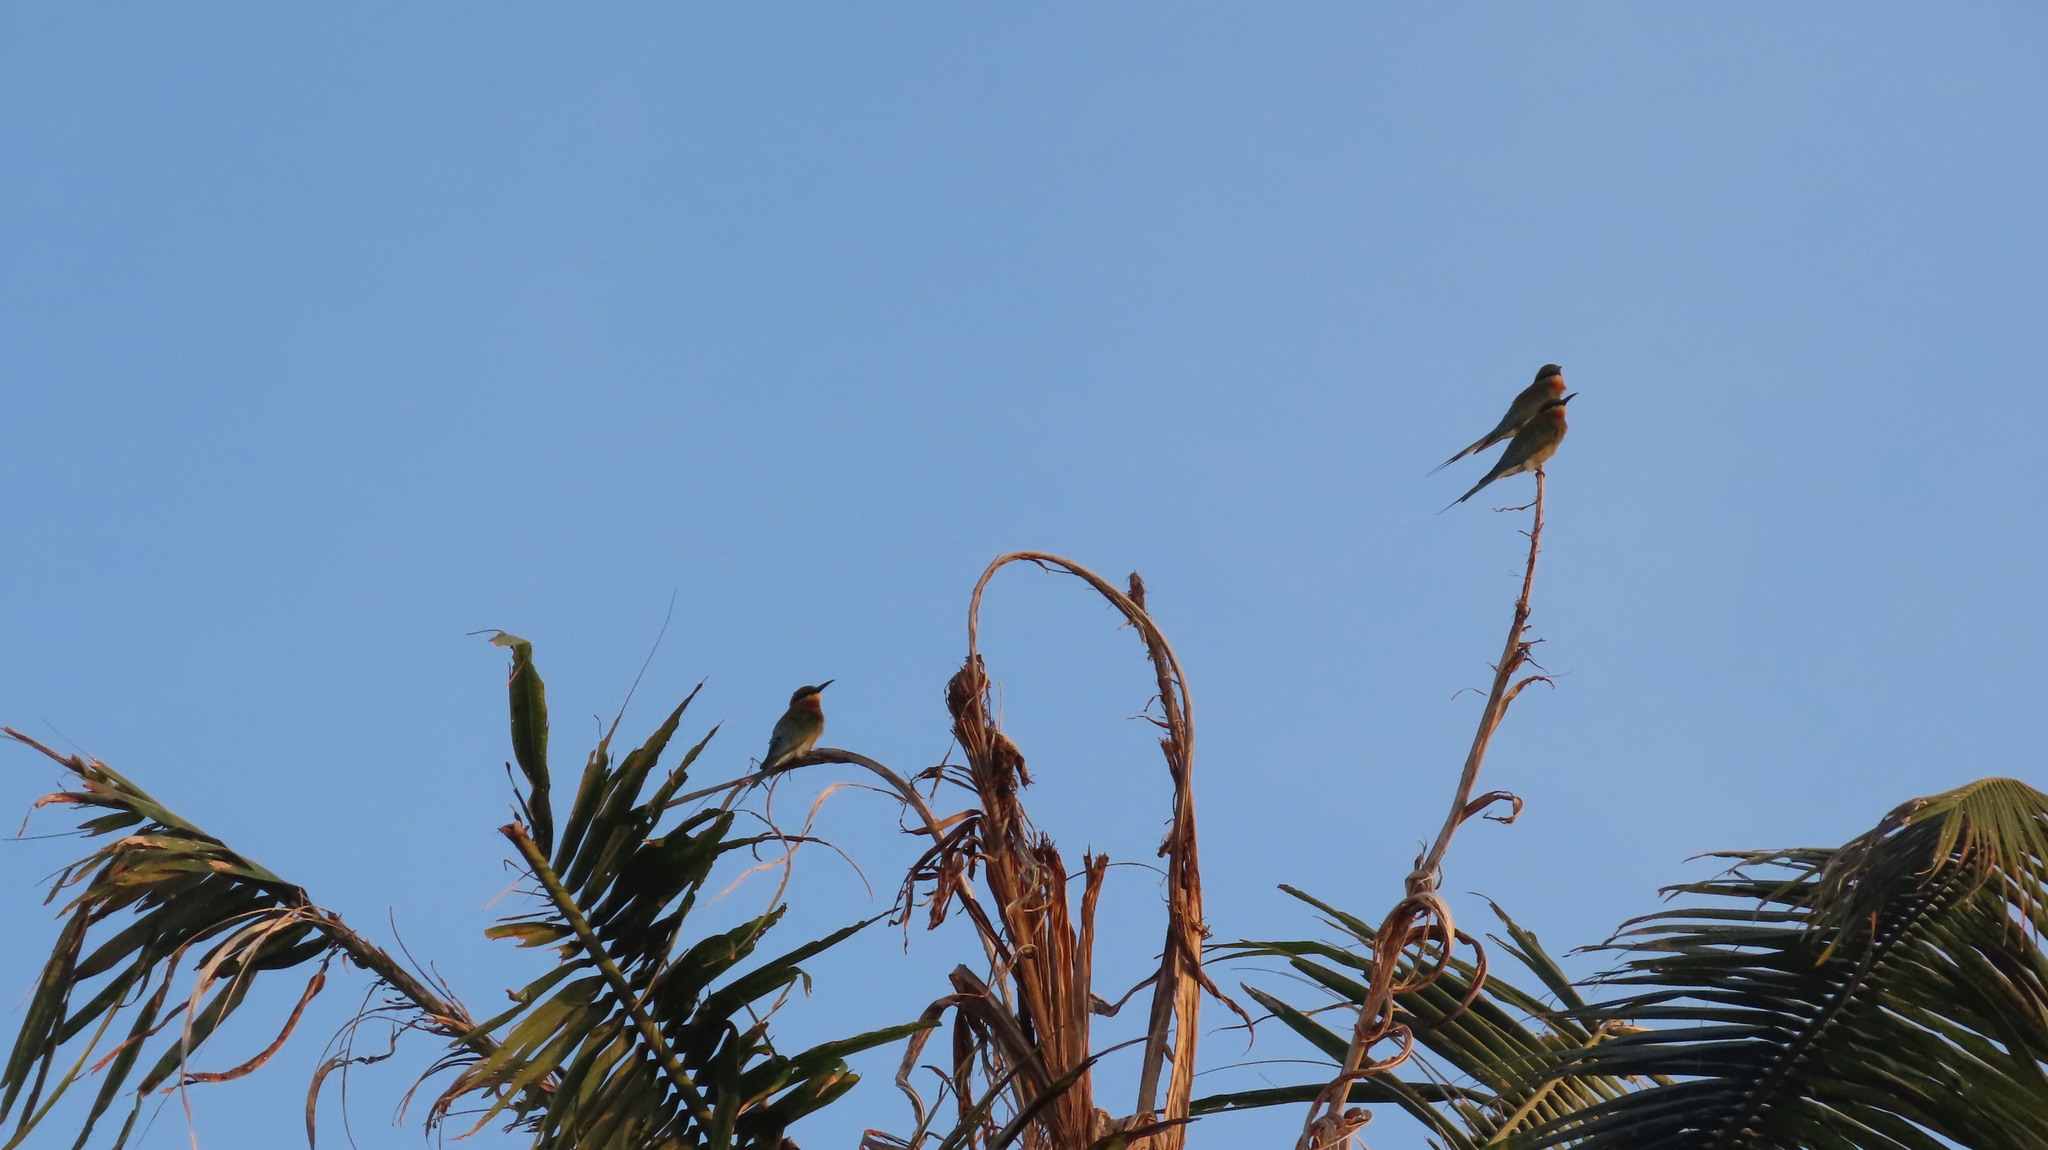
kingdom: Animalia
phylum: Chordata
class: Aves
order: Coraciiformes
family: Meropidae
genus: Merops
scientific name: Merops philippinus
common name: Blue-tailed bee-eater
